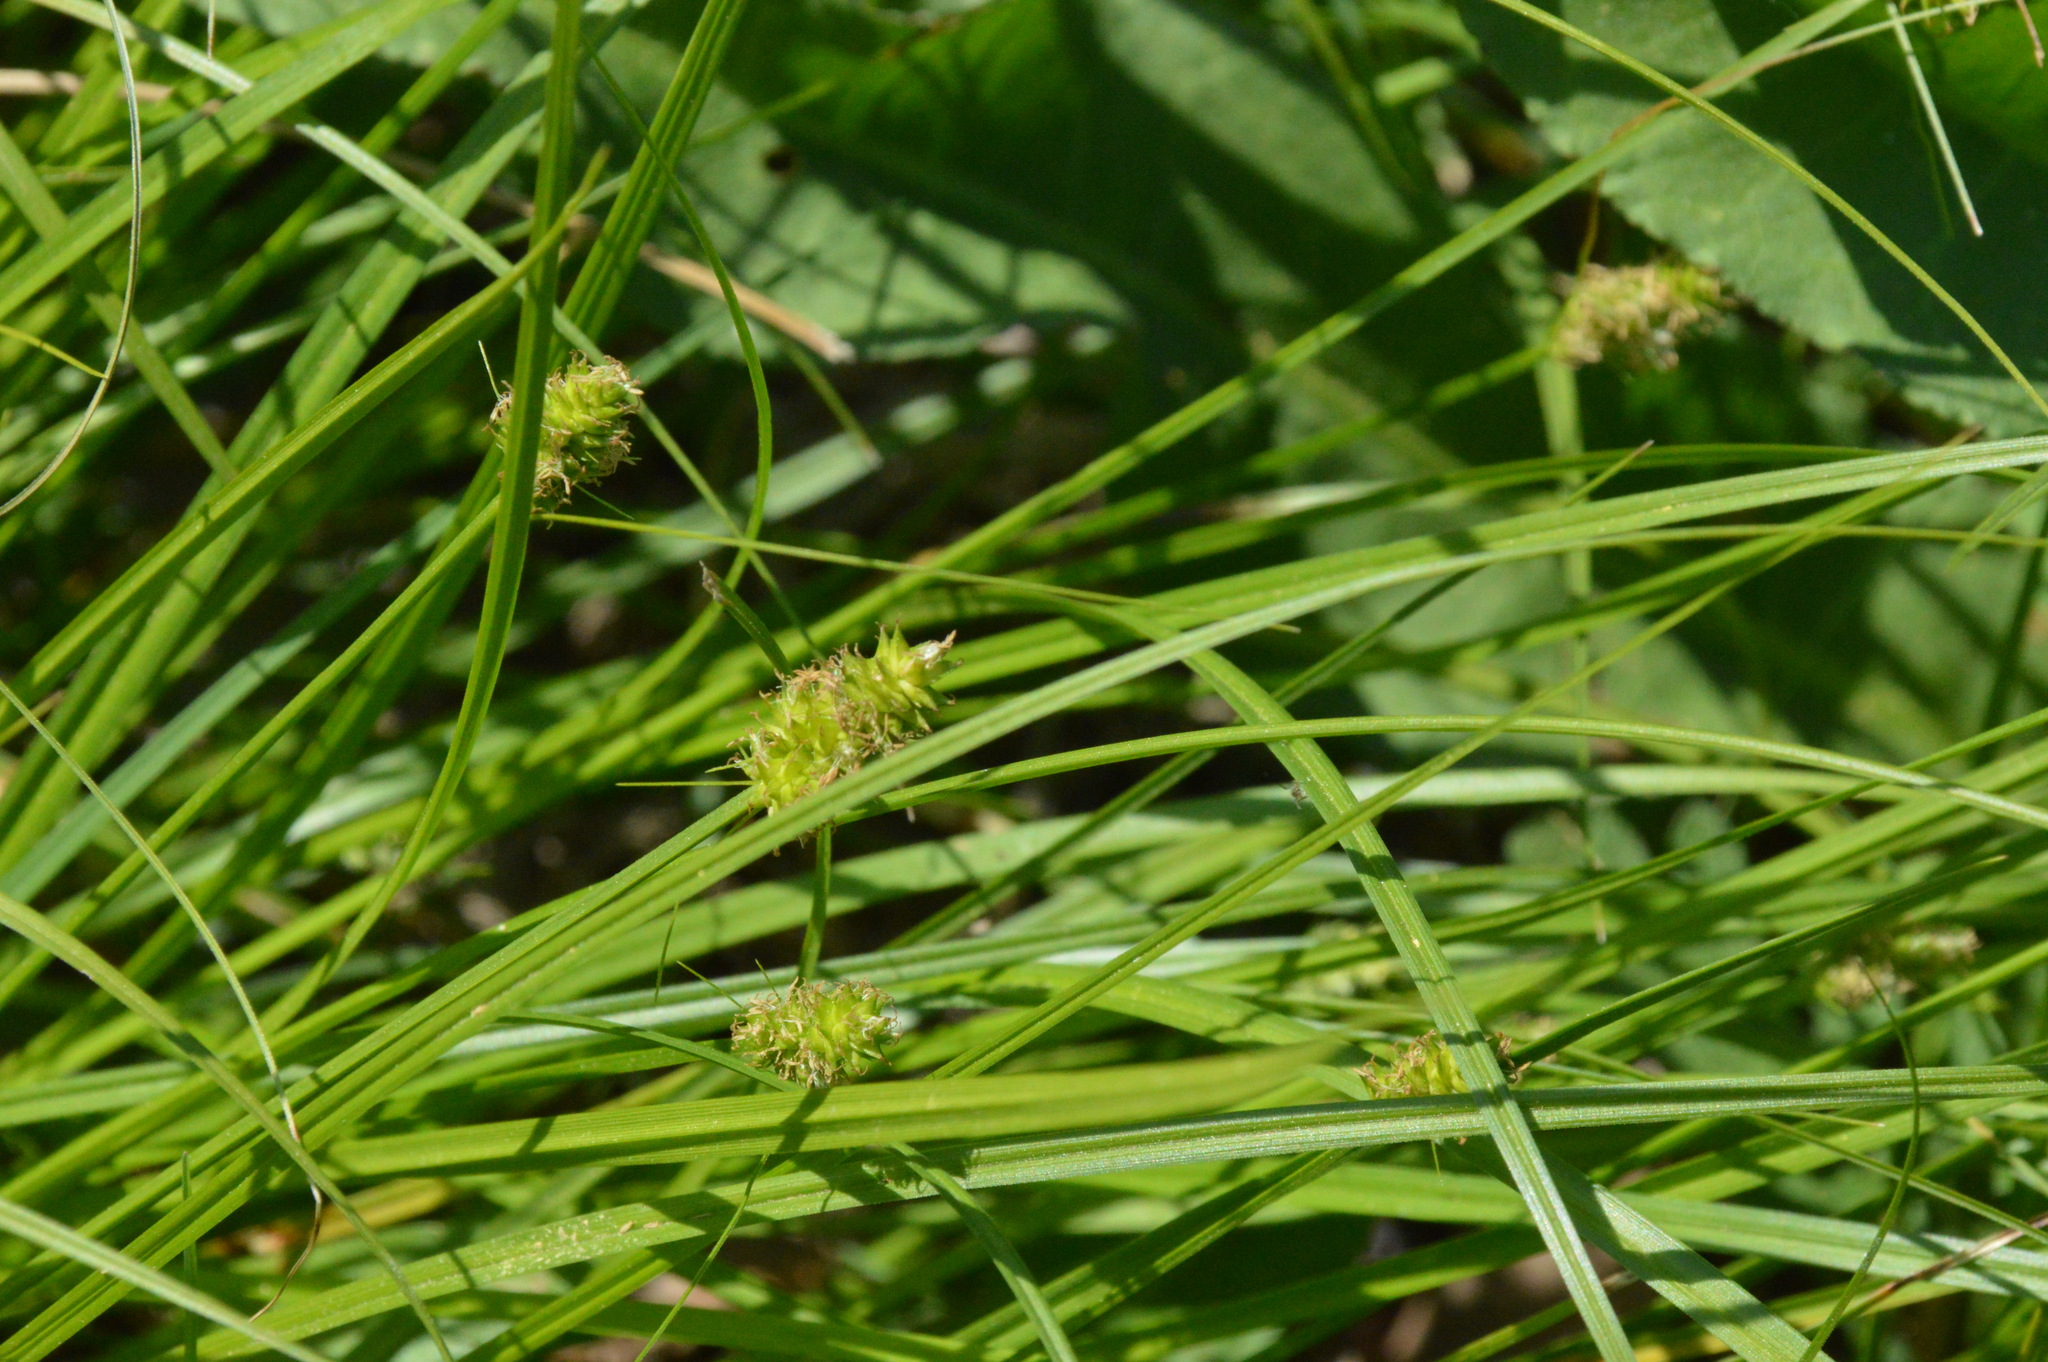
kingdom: Plantae
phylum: Tracheophyta
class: Liliopsida
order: Poales
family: Cyperaceae
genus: Carex
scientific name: Carex leavenworthii
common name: Leavenworth's bracted sedge
